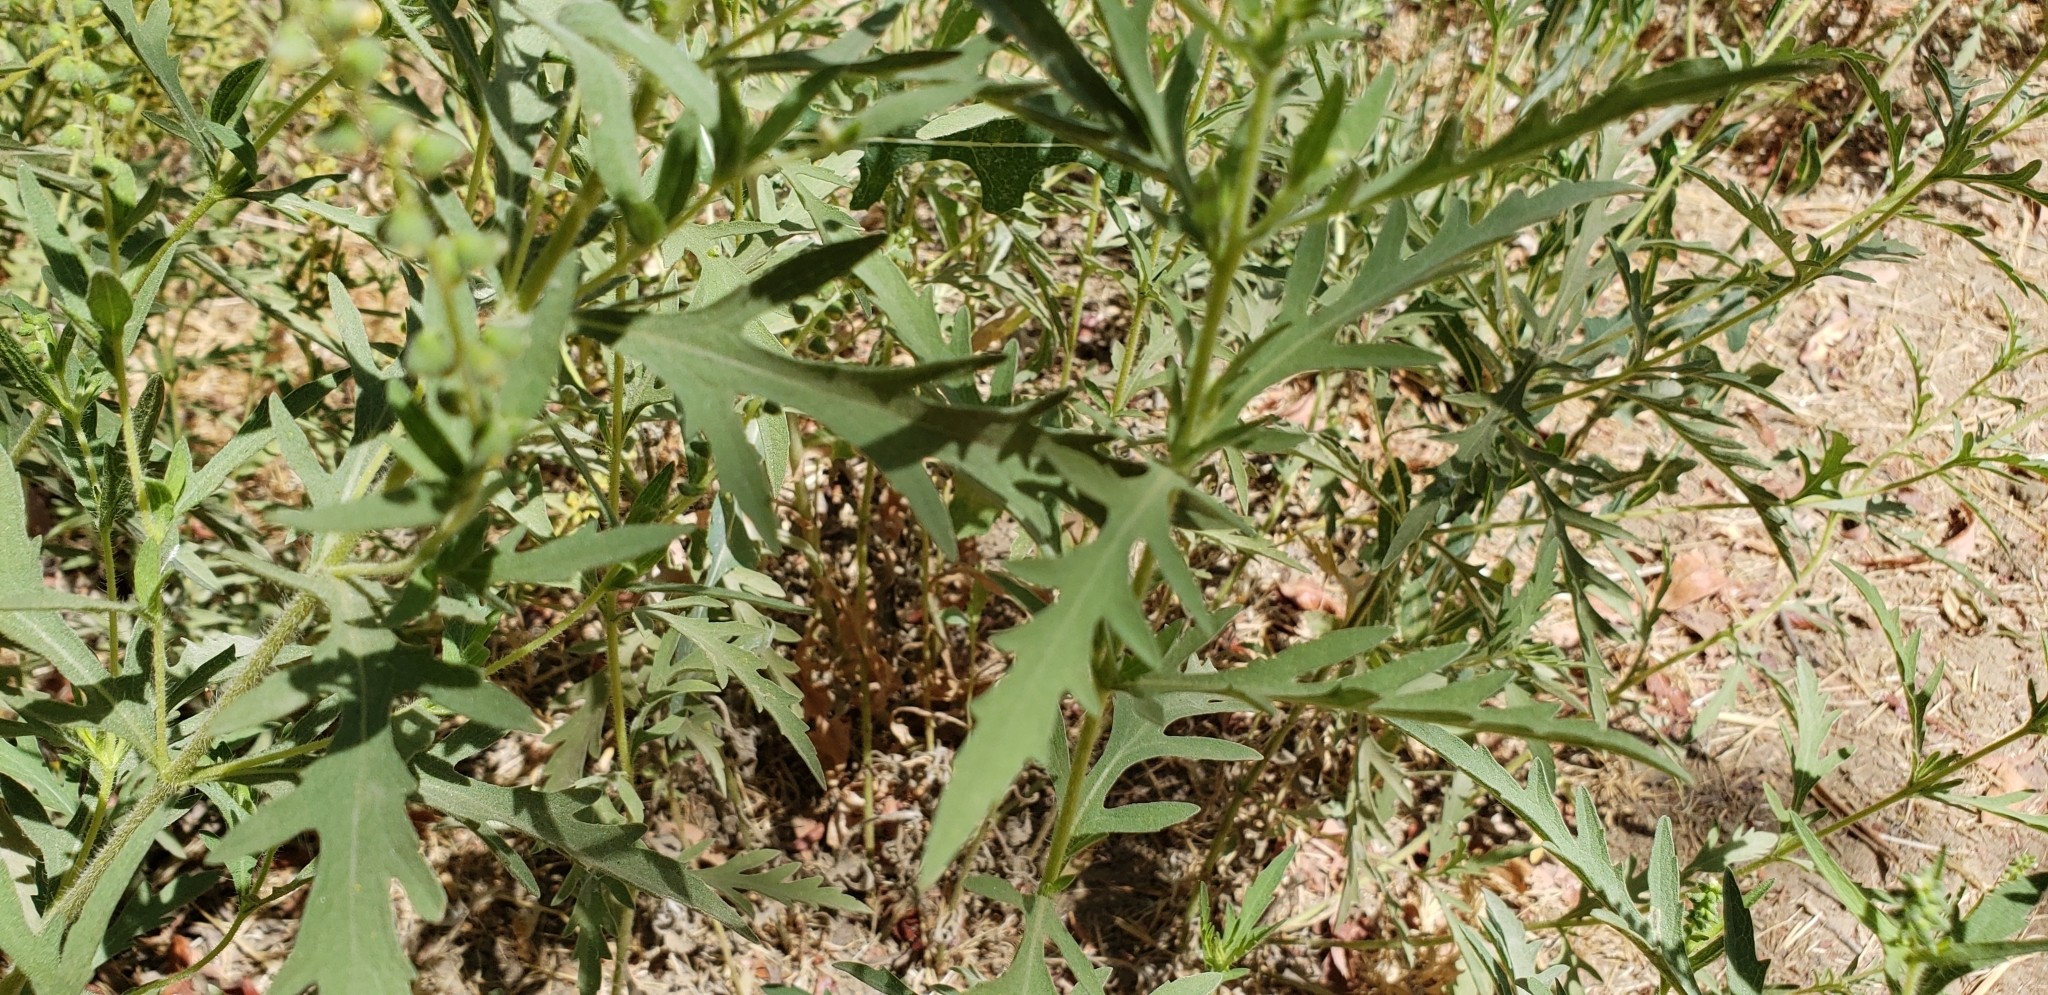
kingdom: Plantae
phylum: Tracheophyta
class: Magnoliopsida
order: Asterales
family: Asteraceae
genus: Ambrosia
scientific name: Ambrosia psilostachya
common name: Perennial ragweed
